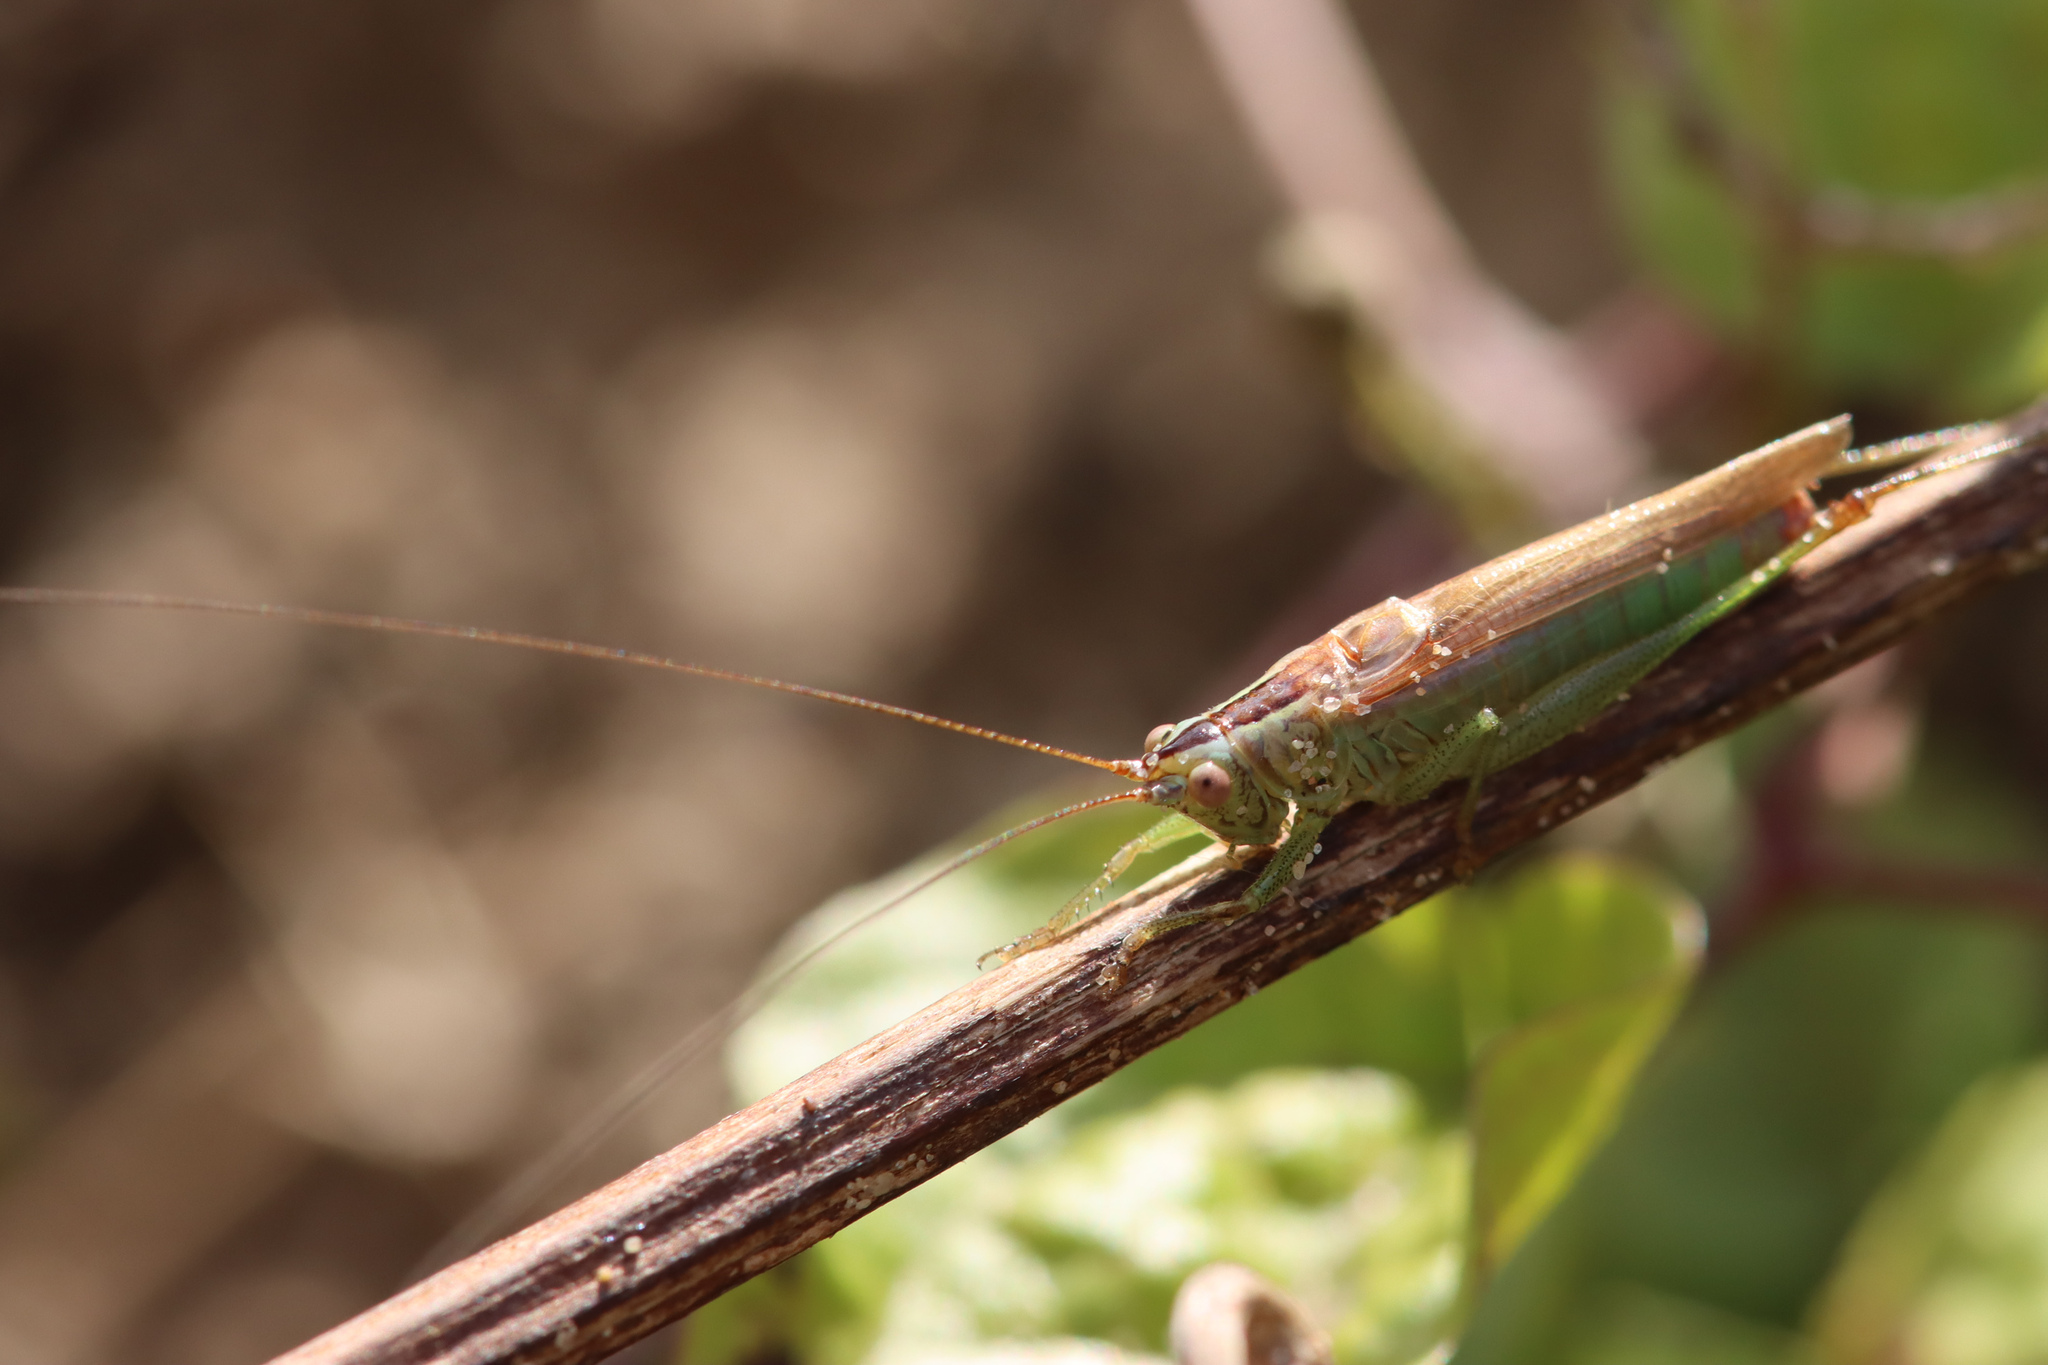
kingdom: Animalia
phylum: Arthropoda
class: Insecta
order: Orthoptera
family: Tettigoniidae
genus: Conocephalus
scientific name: Conocephalus fuscus
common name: Long-winged conehead
